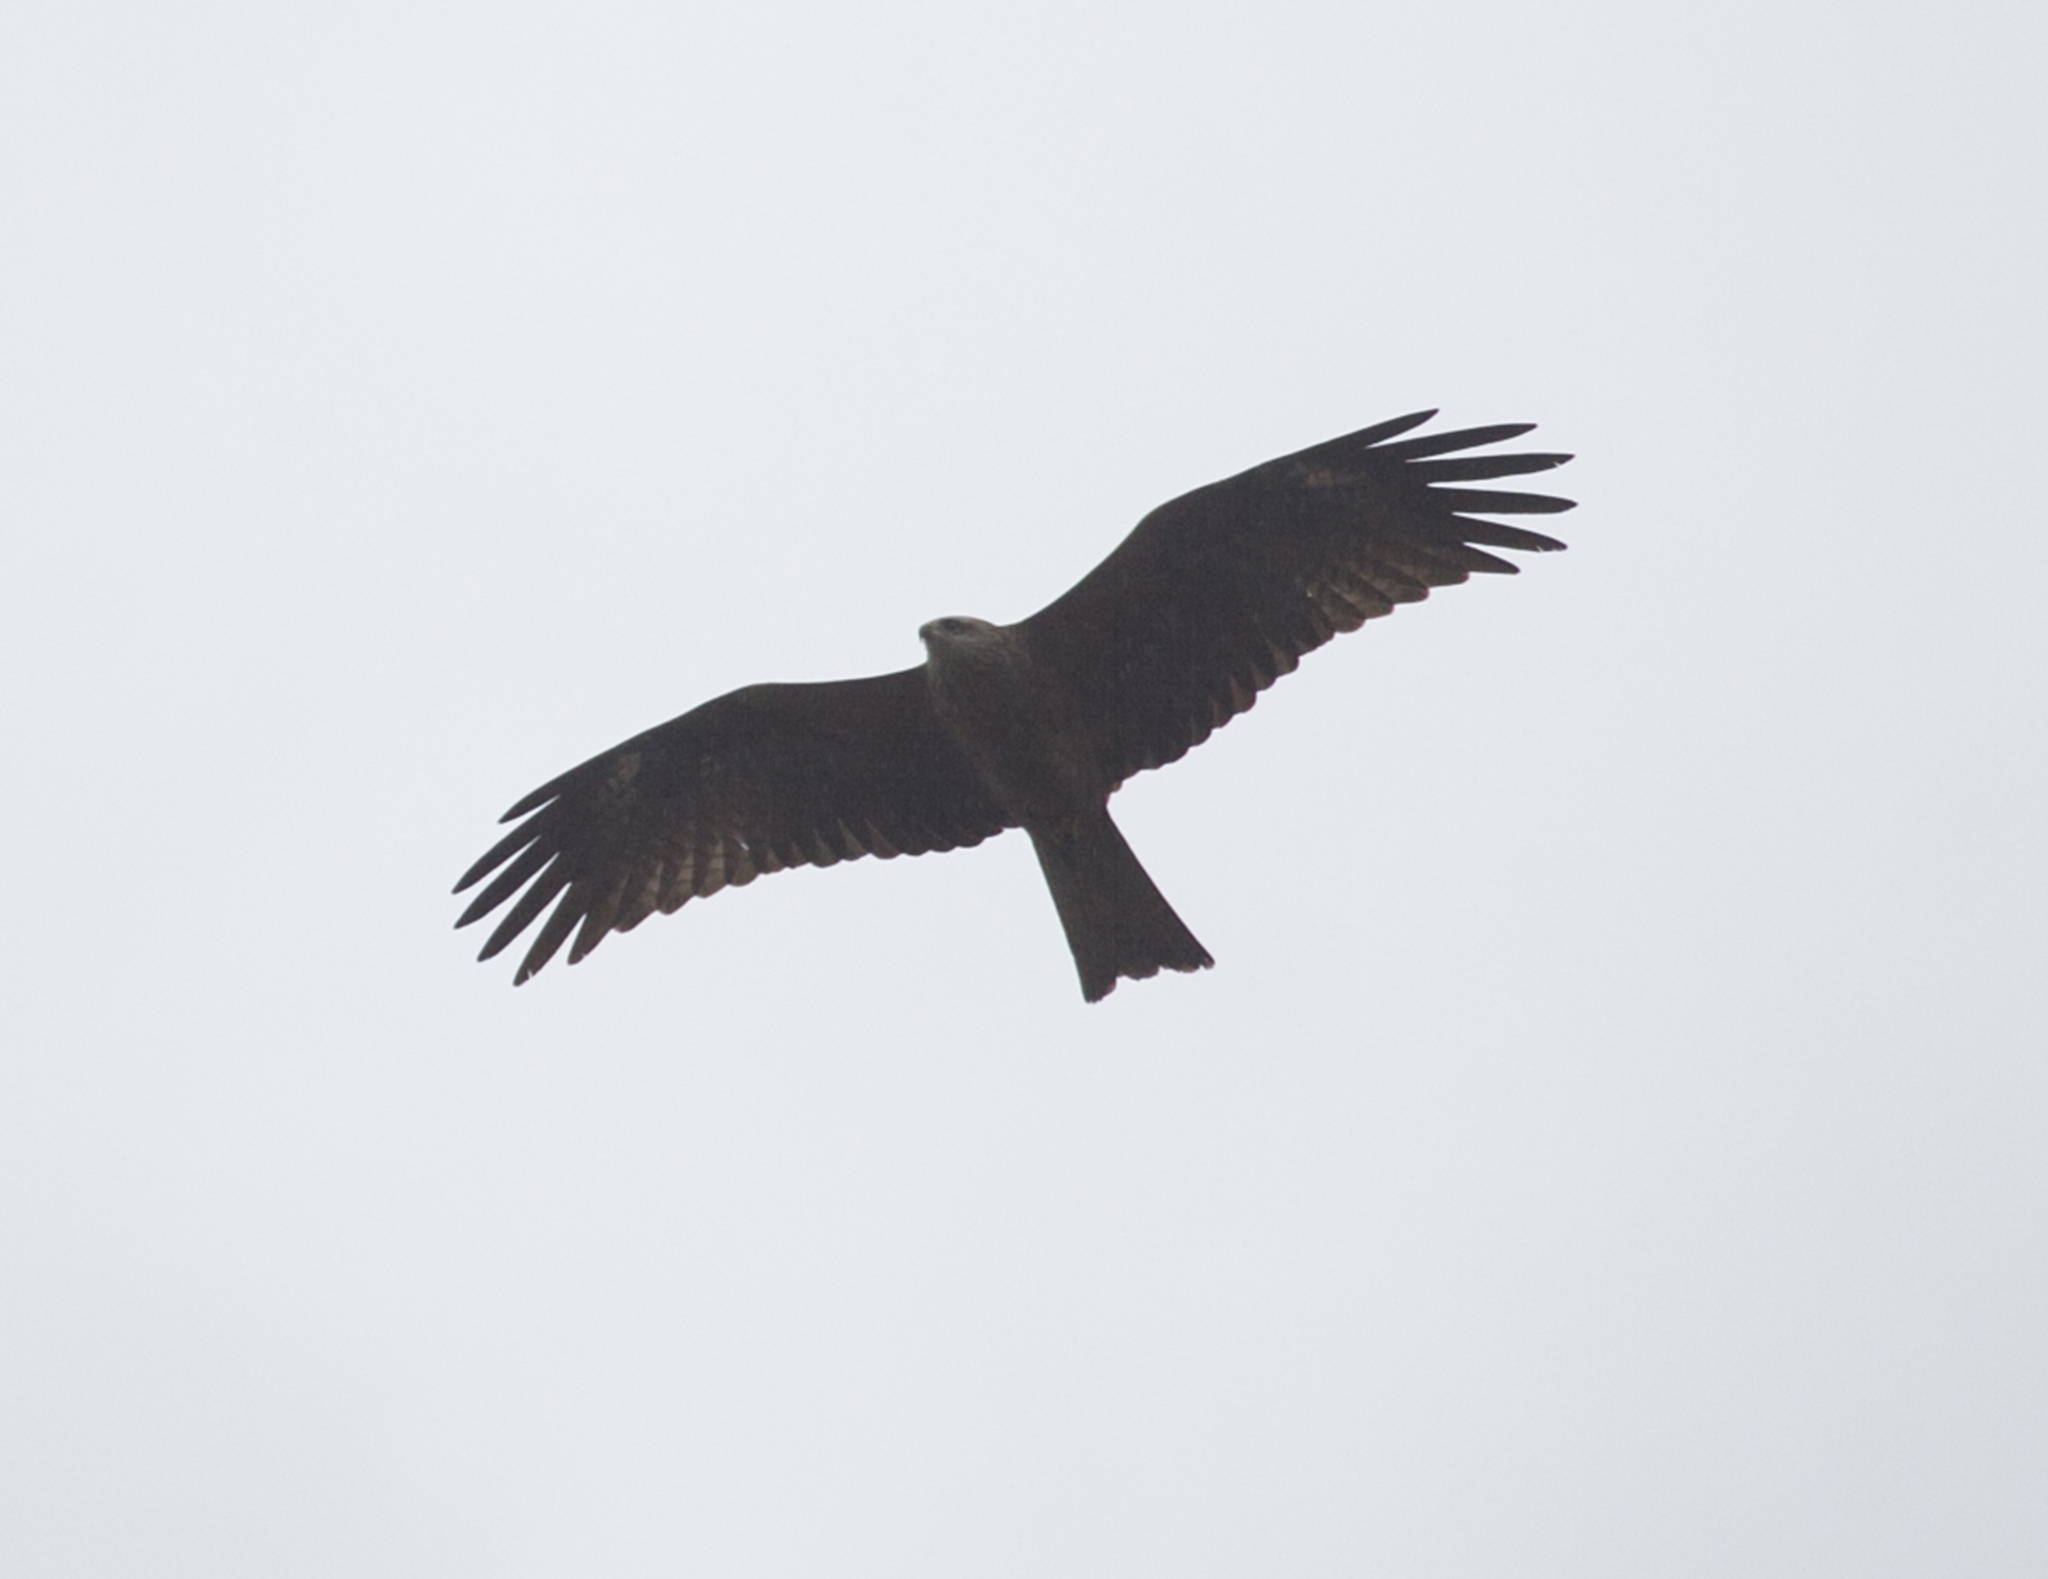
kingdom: Animalia
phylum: Chordata
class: Aves
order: Accipitriformes
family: Accipitridae
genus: Milvus
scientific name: Milvus migrans
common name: Black kite
